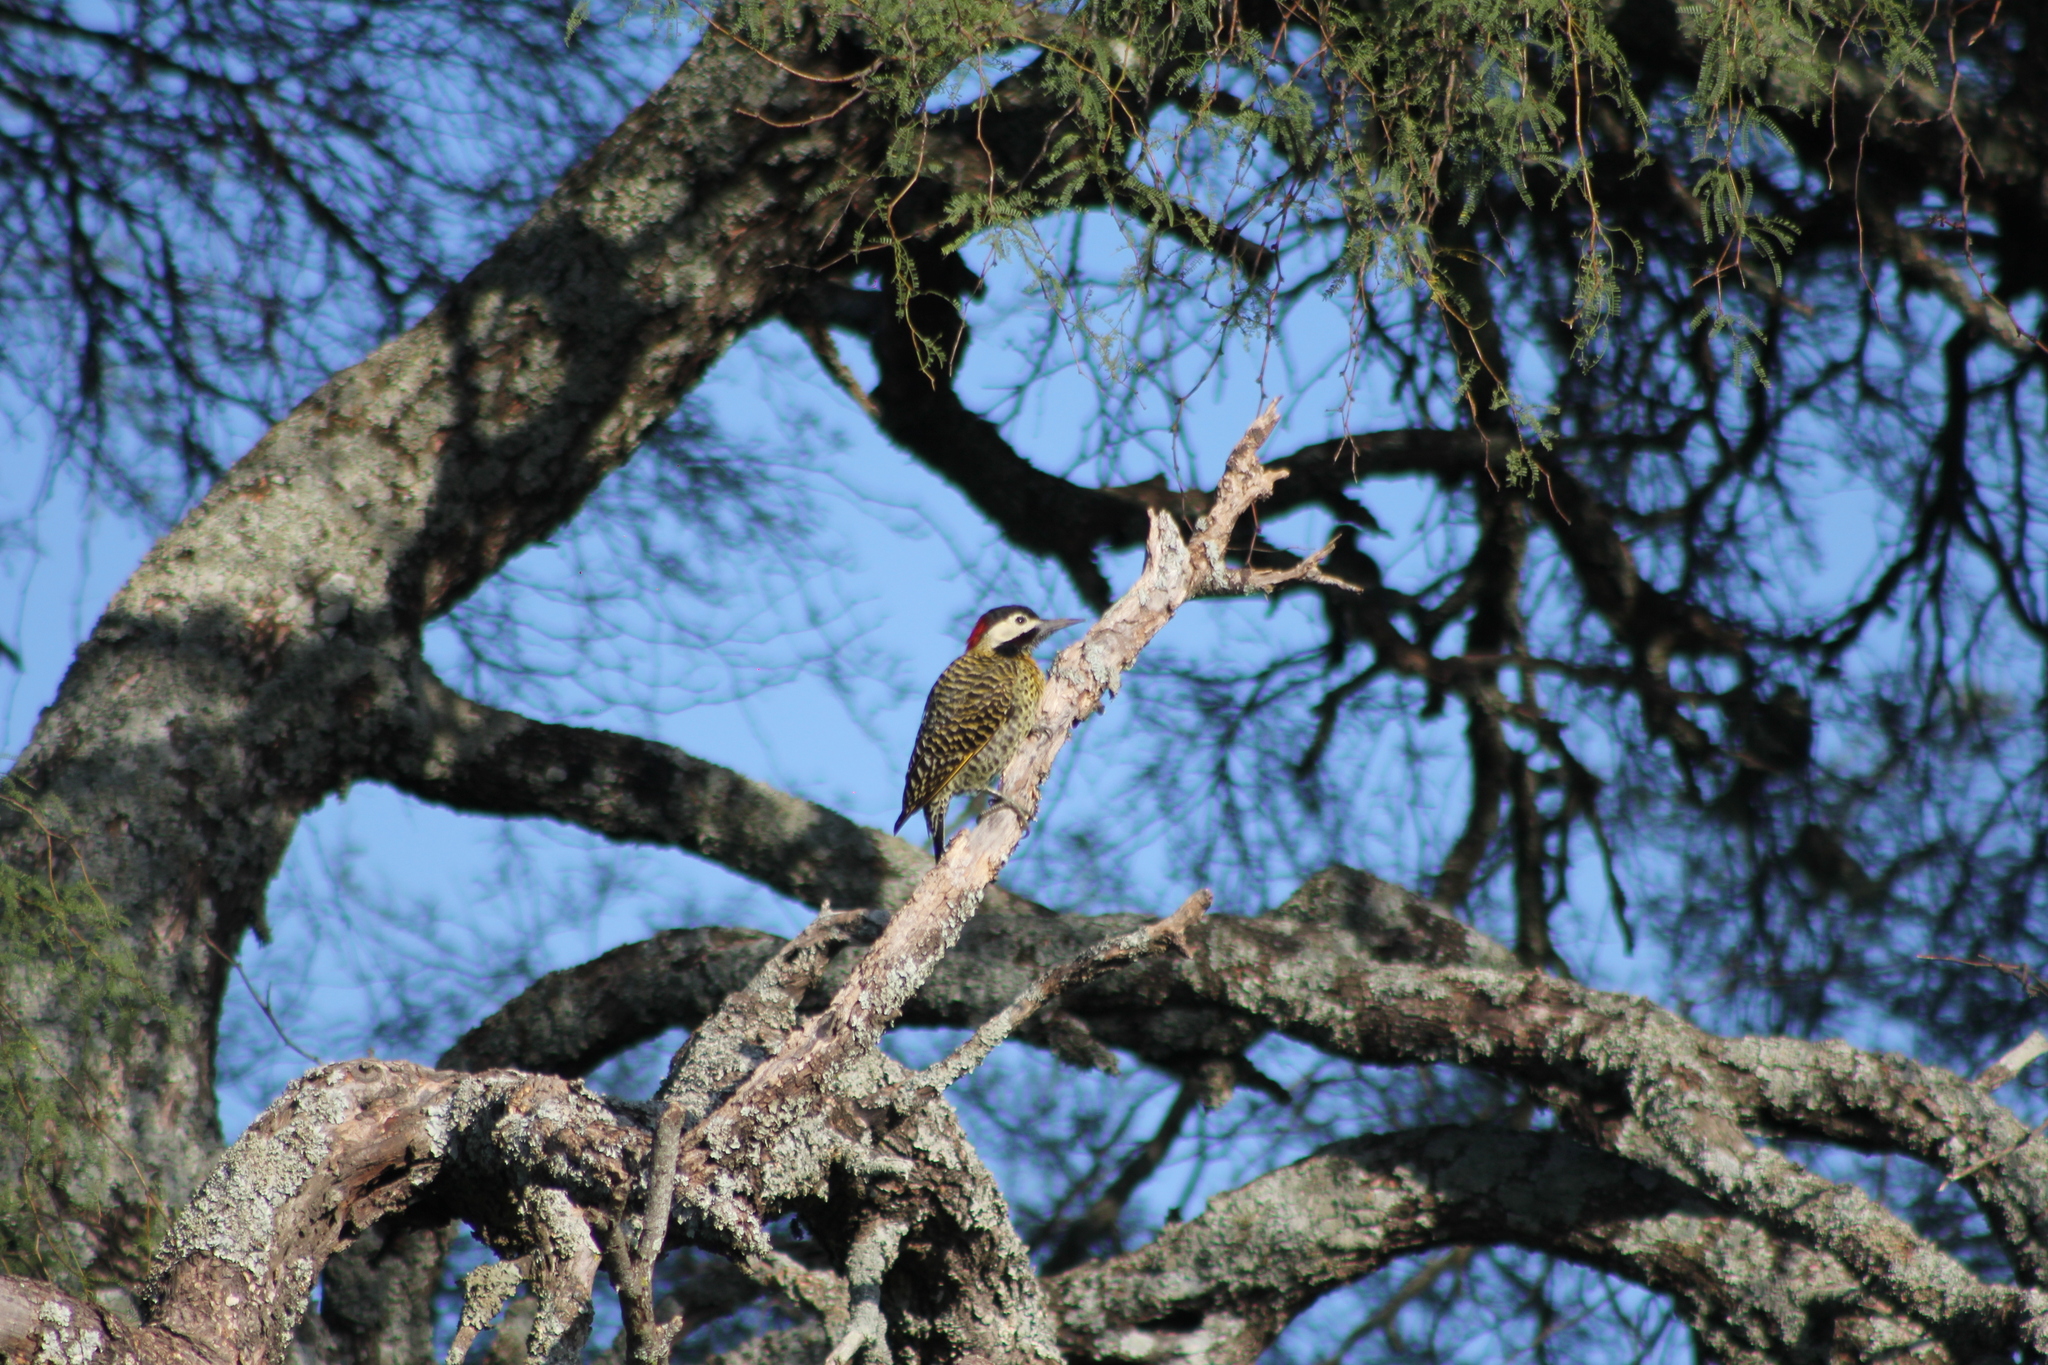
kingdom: Animalia
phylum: Chordata
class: Aves
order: Piciformes
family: Picidae
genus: Colaptes
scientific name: Colaptes melanochloros
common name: Green-barred woodpecker
